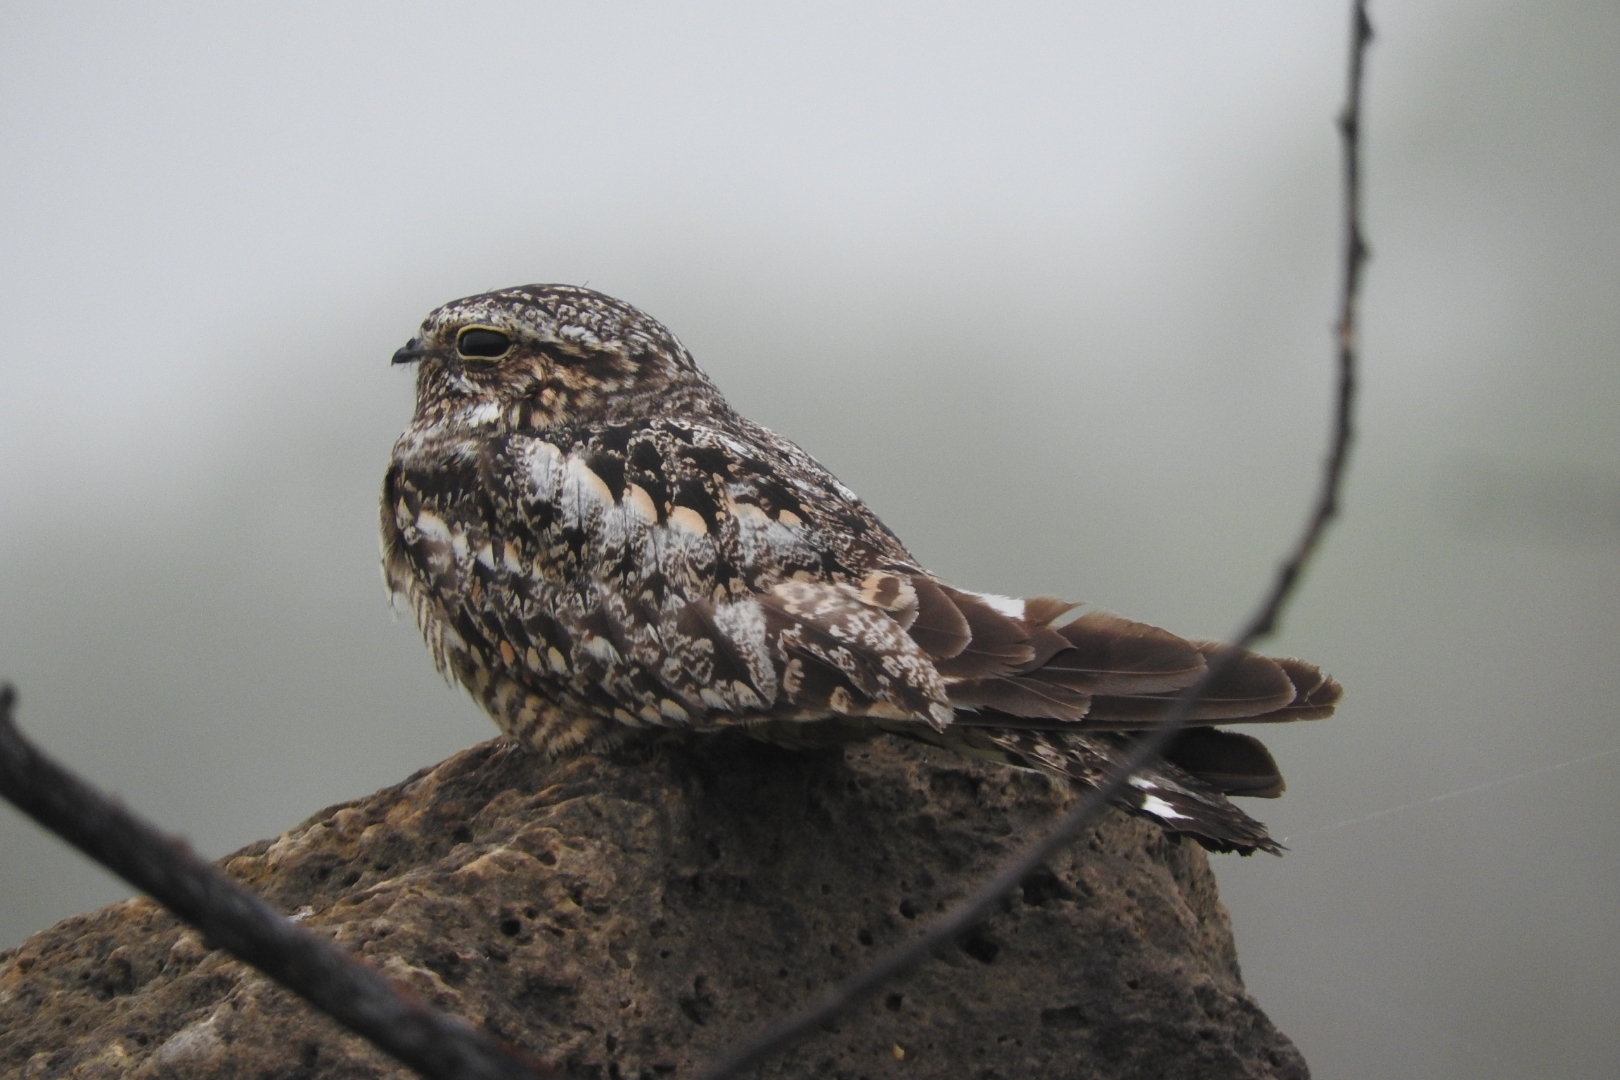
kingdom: Animalia
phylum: Chordata
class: Aves
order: Caprimulgiformes
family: Caprimulgidae
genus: Chordeiles
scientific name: Chordeiles acutipennis
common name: Lesser nighthawk
